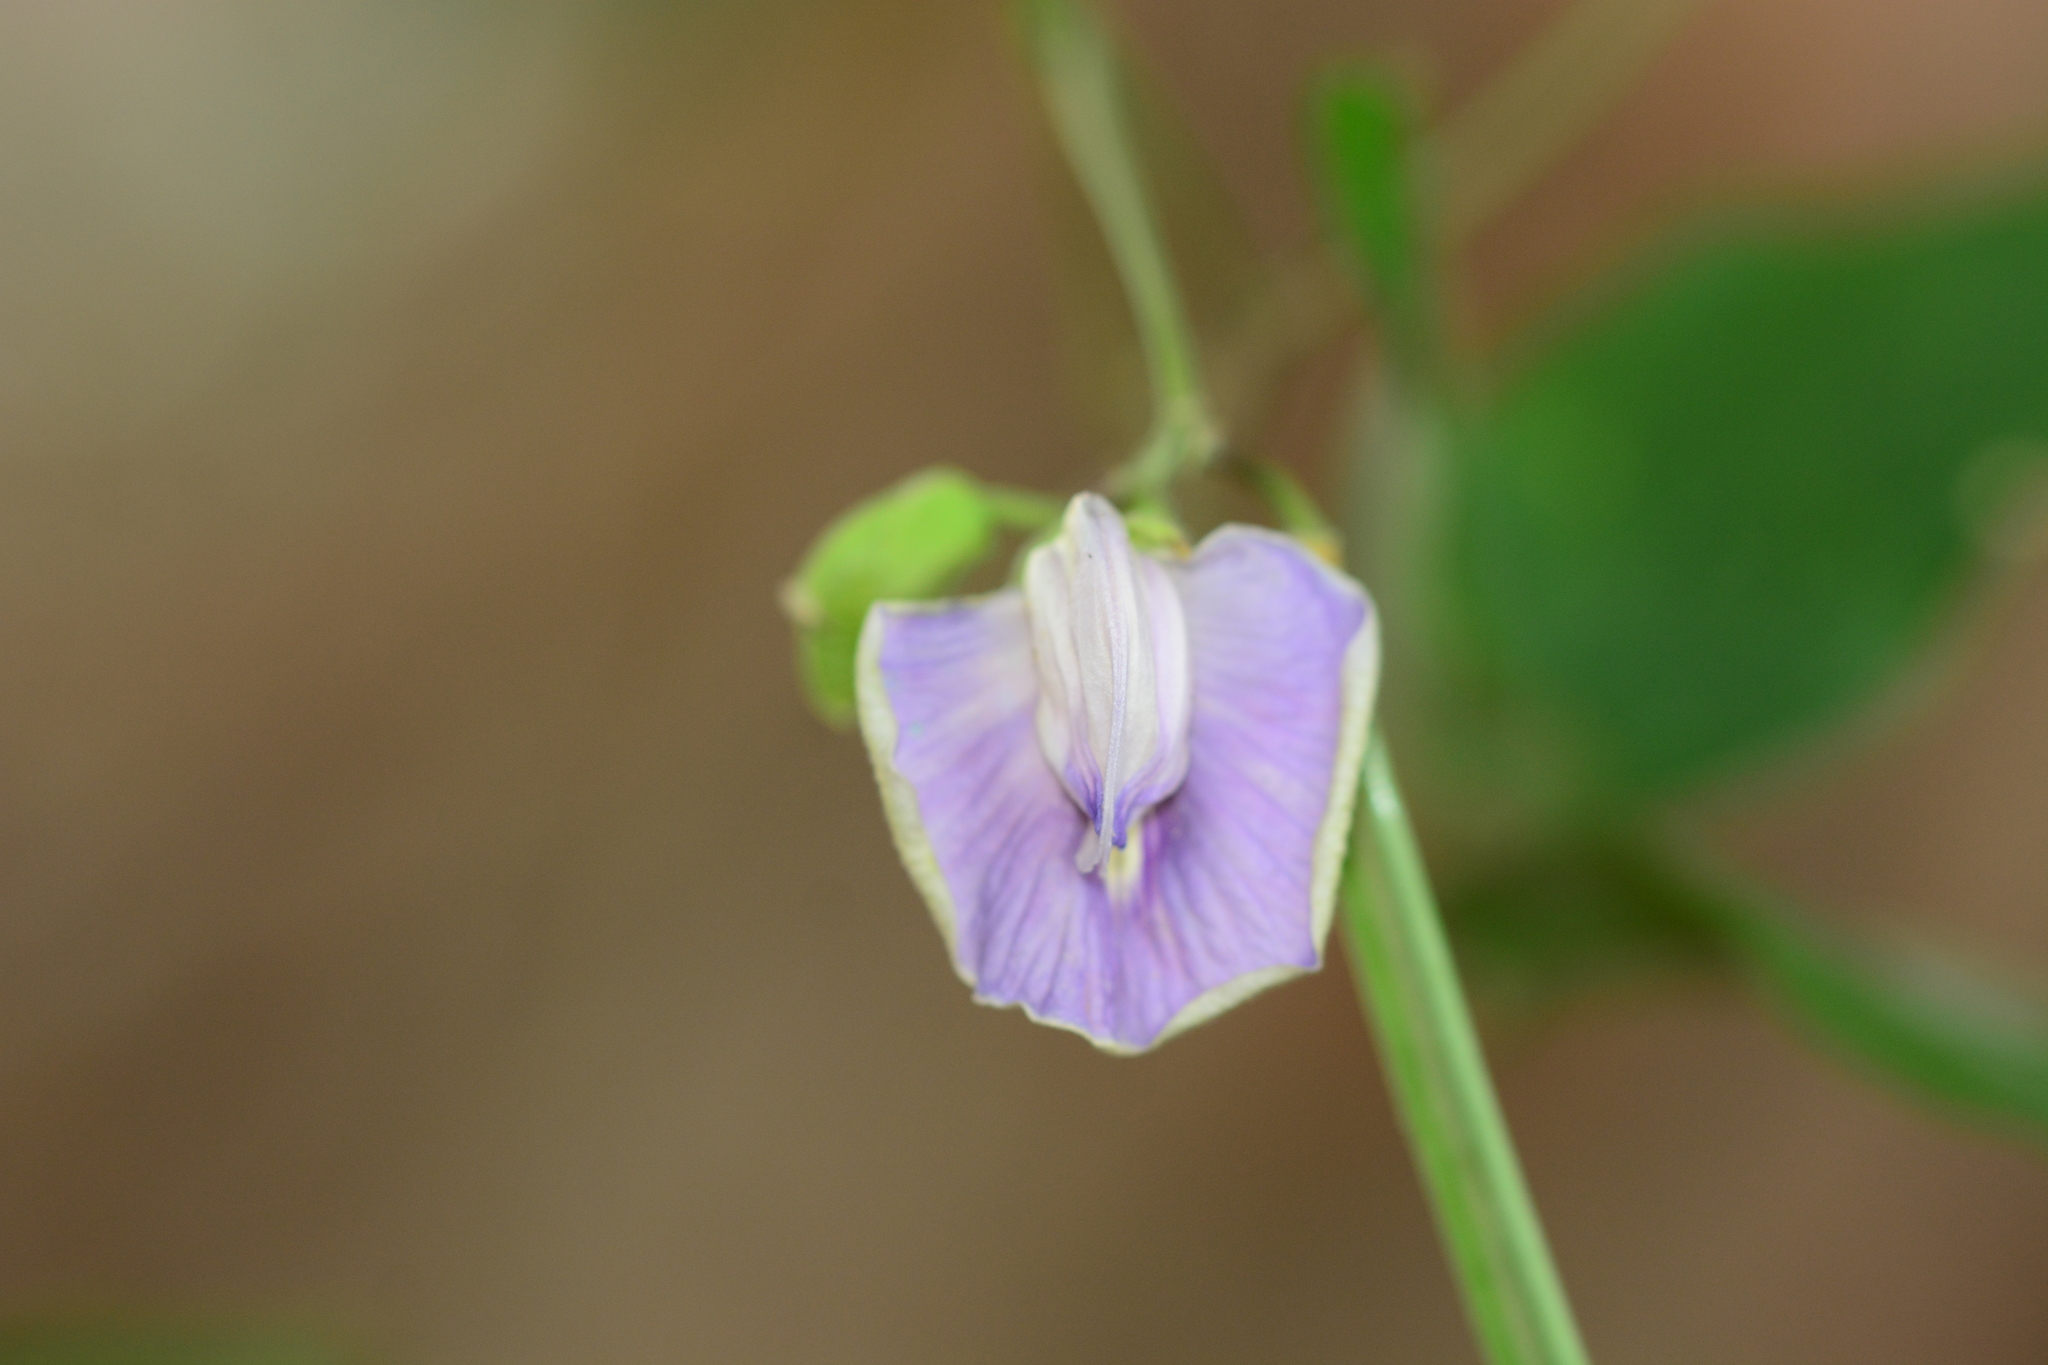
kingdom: Plantae
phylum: Tracheophyta
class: Magnoliopsida
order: Fabales
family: Fabaceae
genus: Centrosema
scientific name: Centrosema molle
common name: Soft butterfly pea
